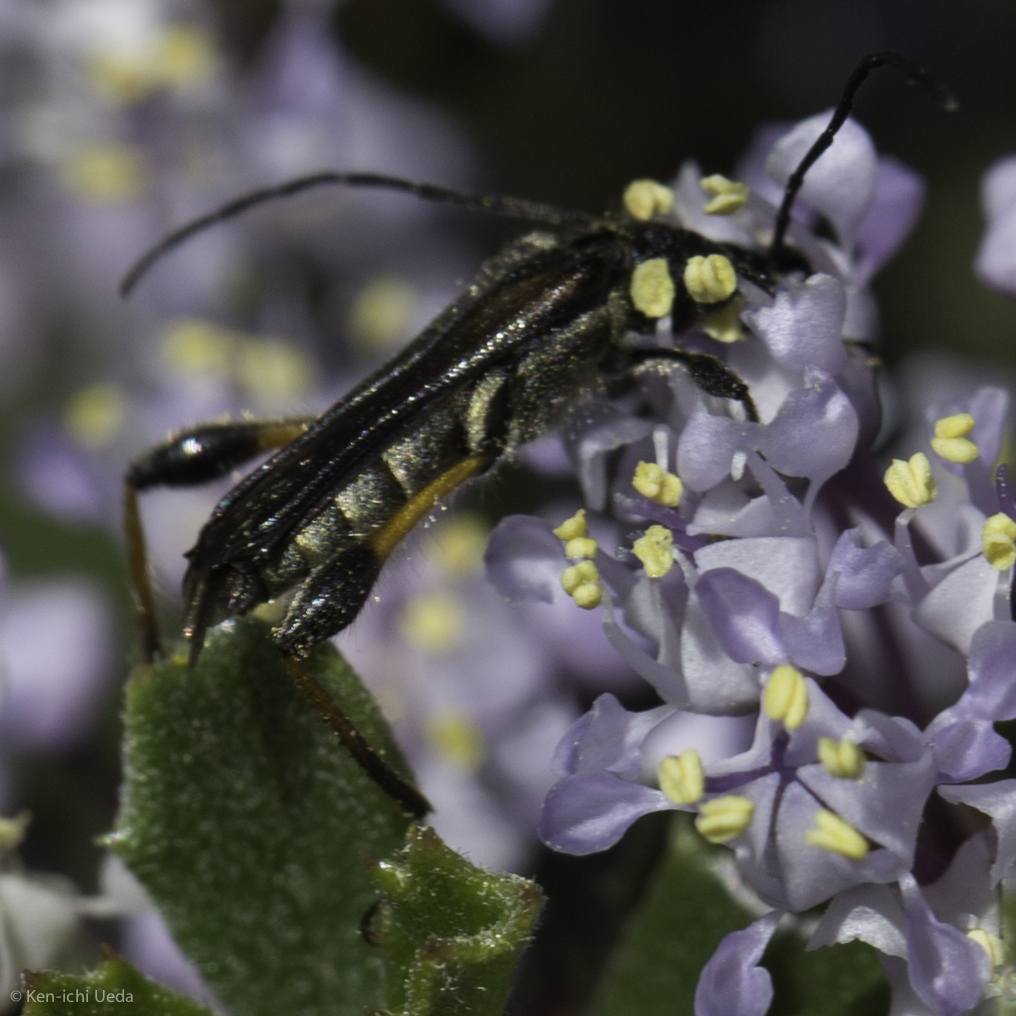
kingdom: Animalia
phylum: Arthropoda
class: Insecta
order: Coleoptera
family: Cerambycidae
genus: Callimoxys
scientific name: Callimoxys fuscipennis
